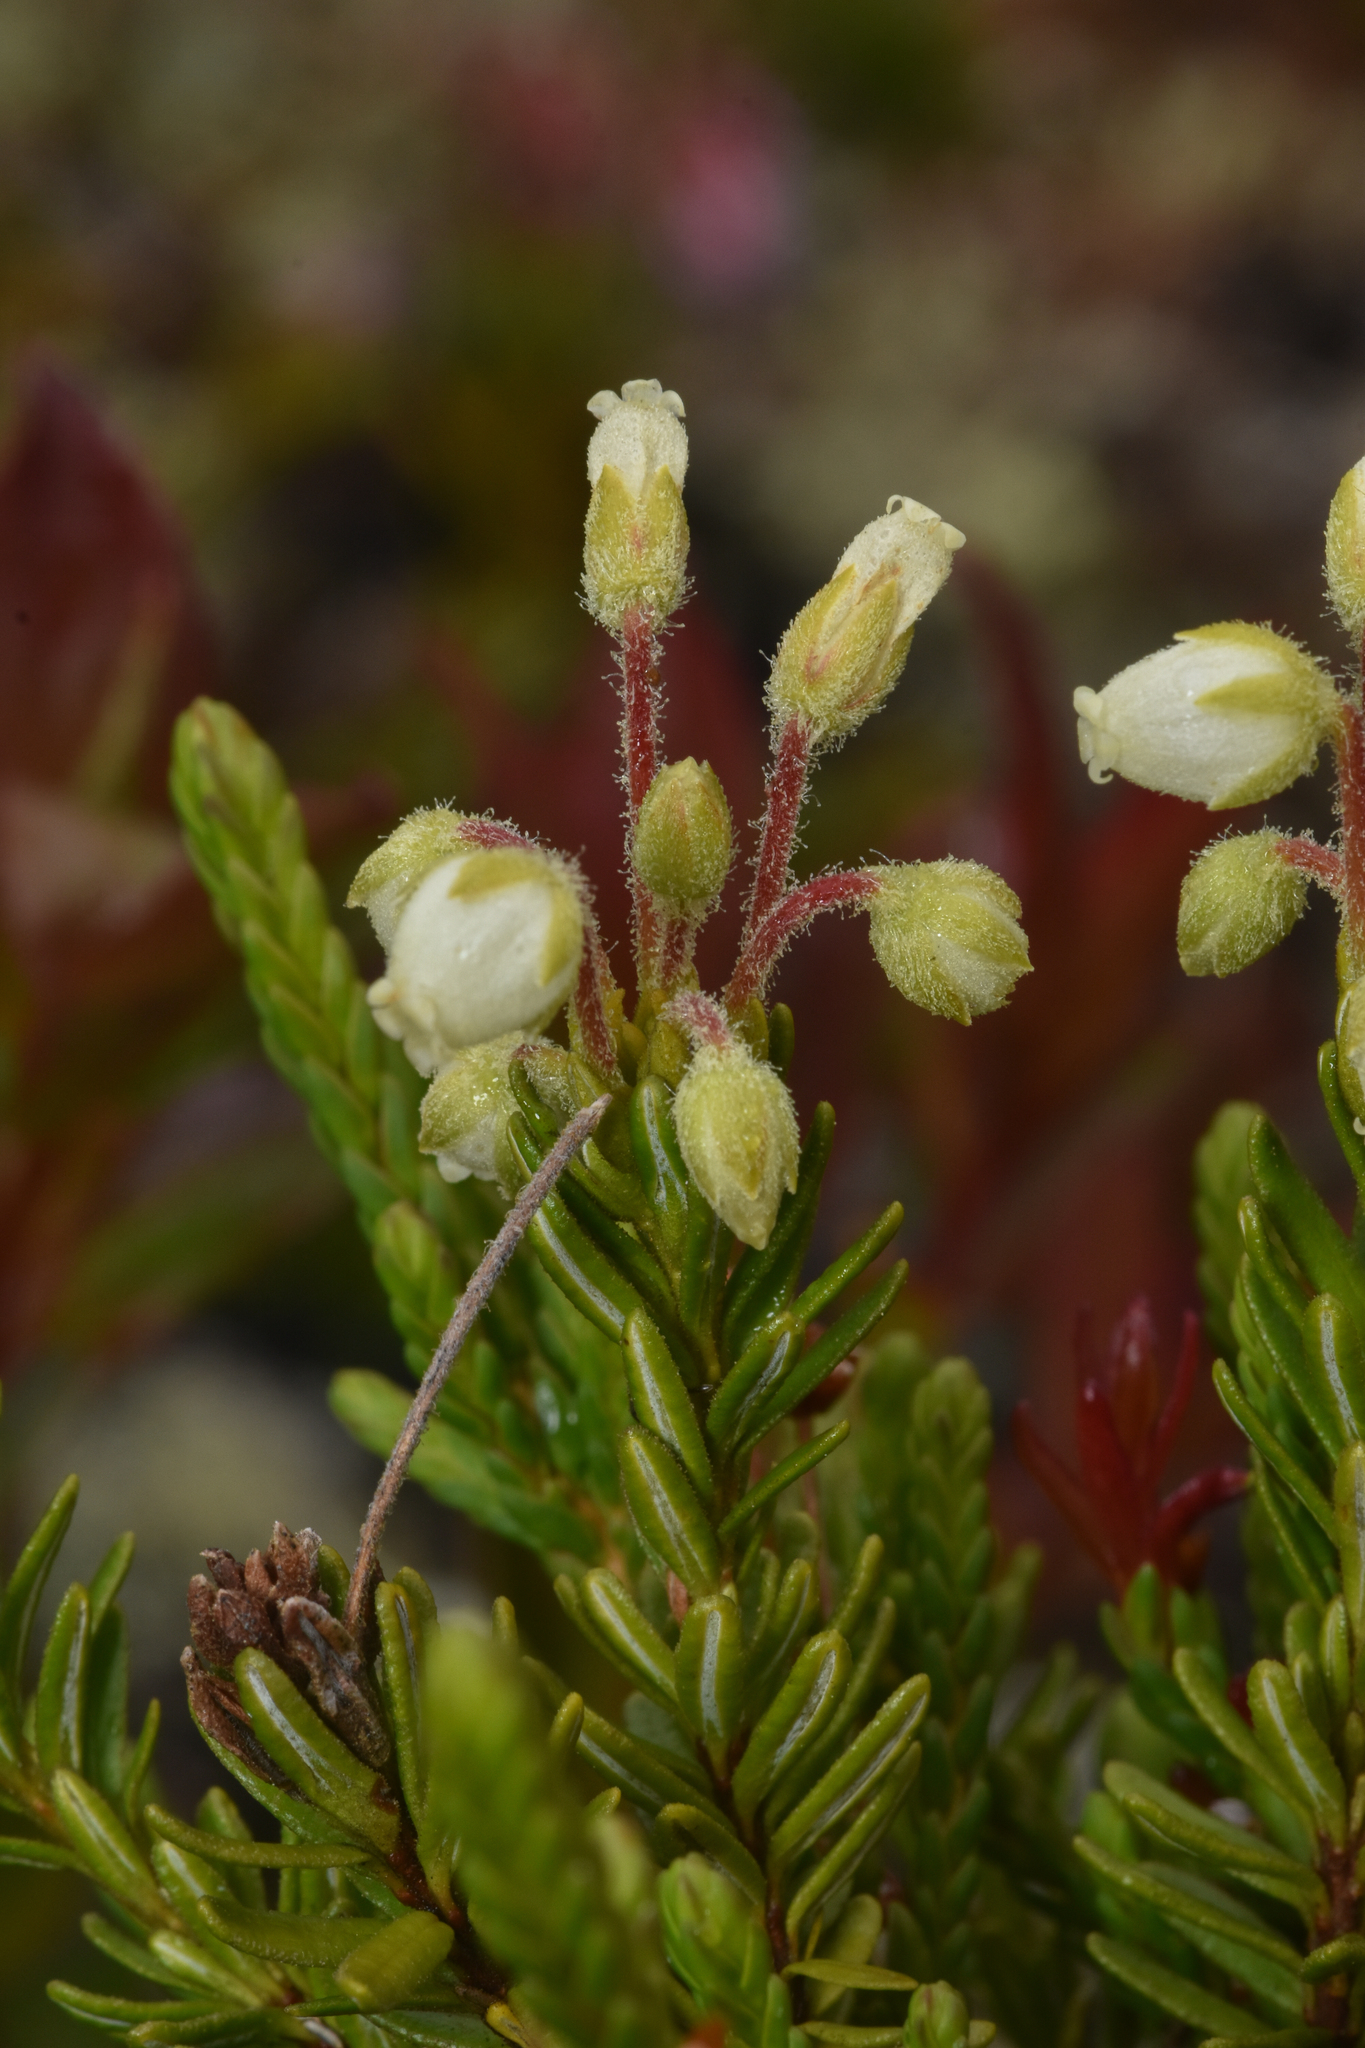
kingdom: Plantae
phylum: Tracheophyta
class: Magnoliopsida
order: Ericales
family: Ericaceae
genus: Phyllodoce
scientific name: Phyllodoce glanduliflora
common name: Cream mountain heather
